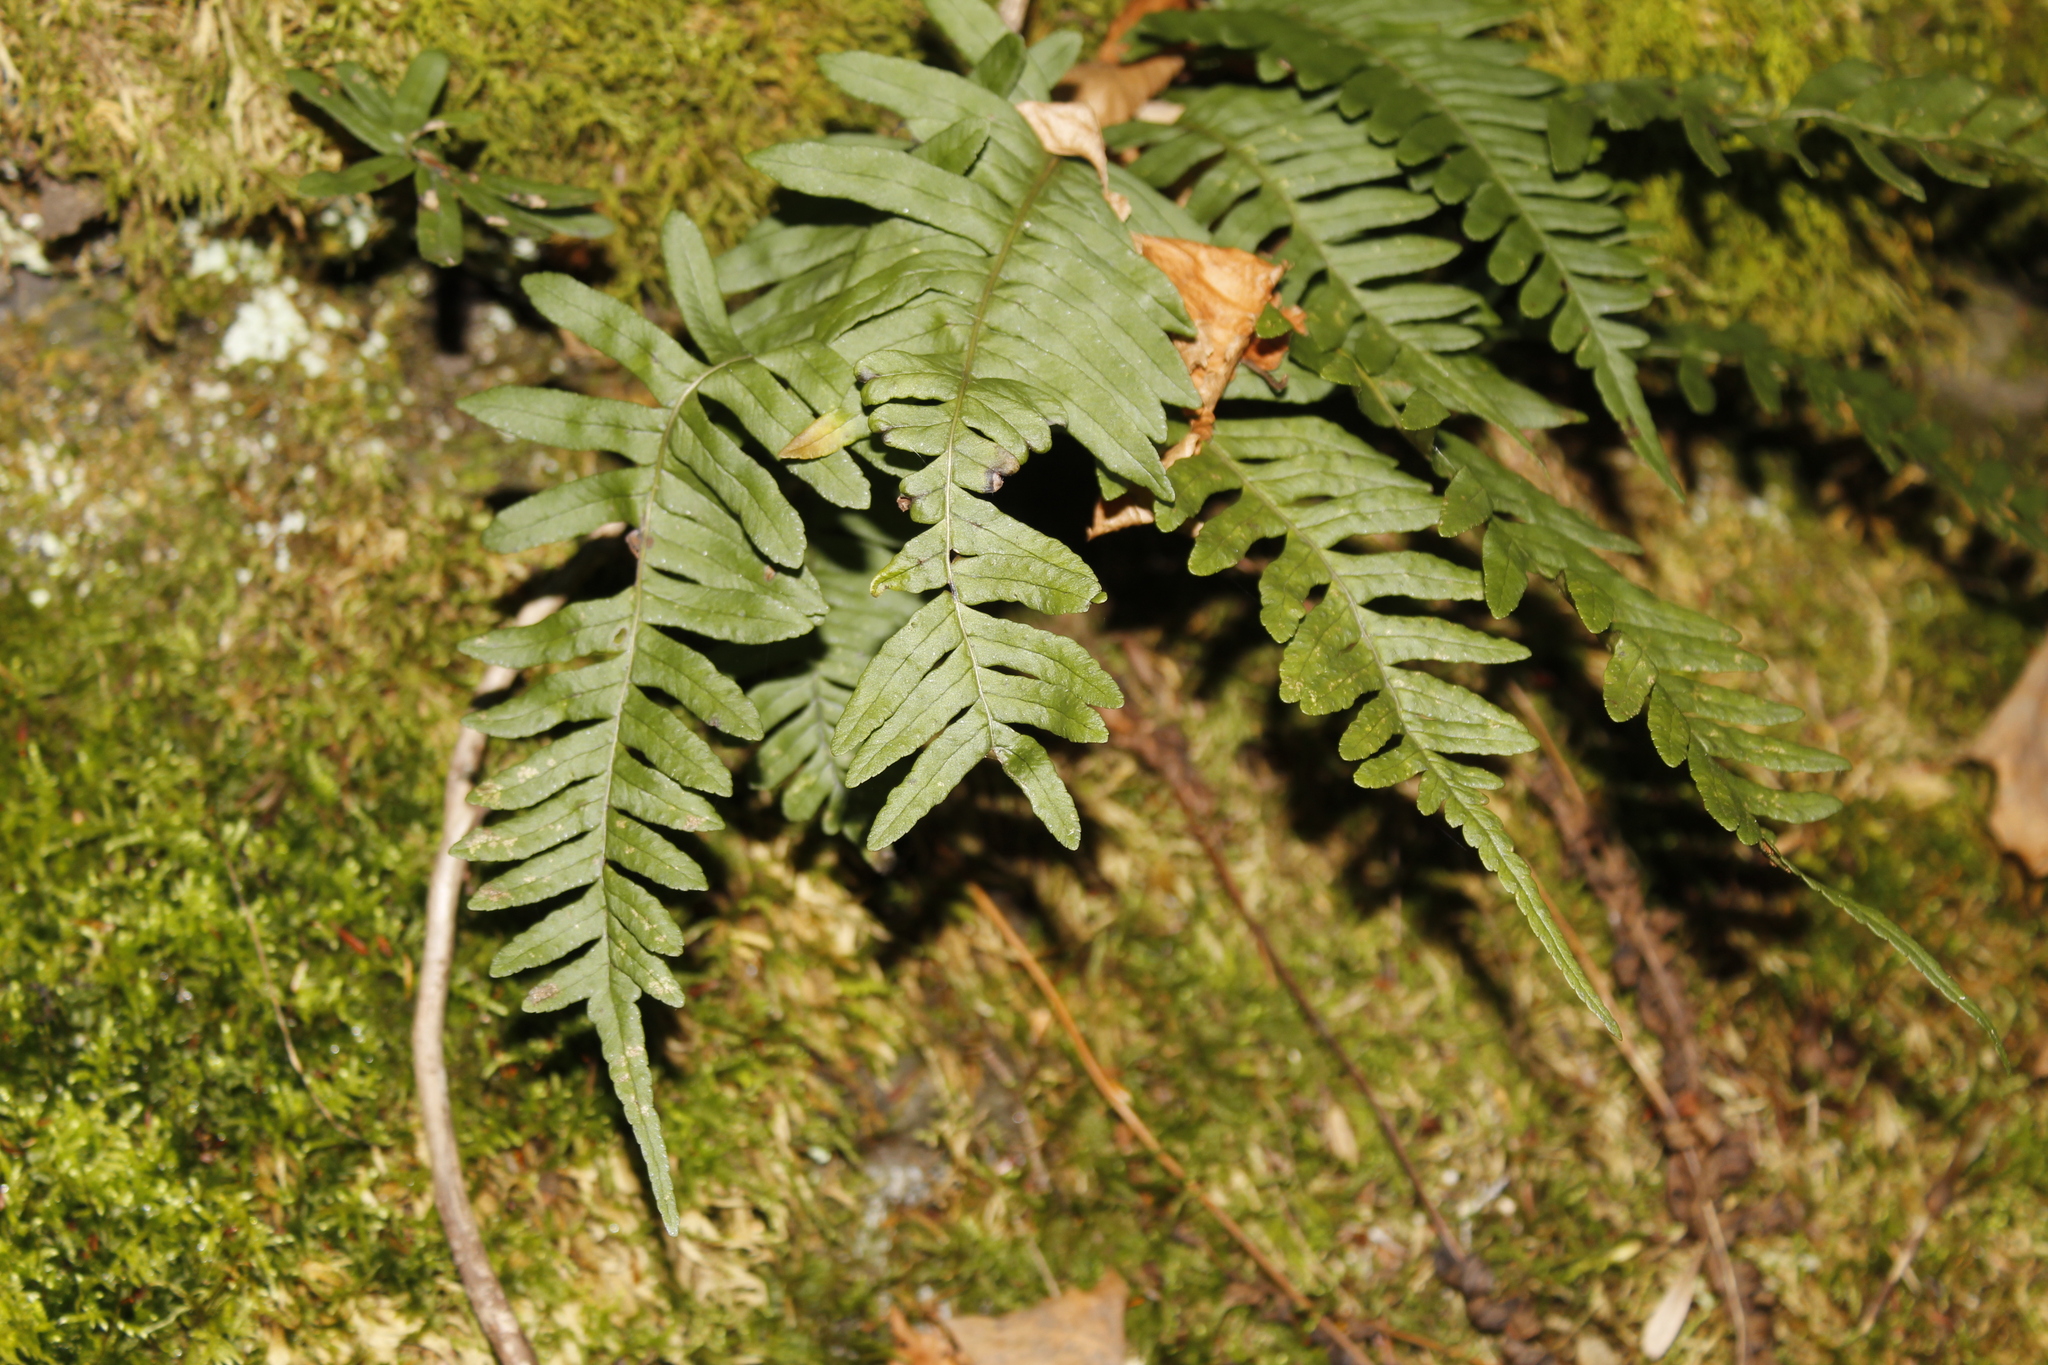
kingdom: Plantae
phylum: Tracheophyta
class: Polypodiopsida
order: Polypodiales
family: Polypodiaceae
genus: Polypodium
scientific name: Polypodium virginianum
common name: American wall fern
